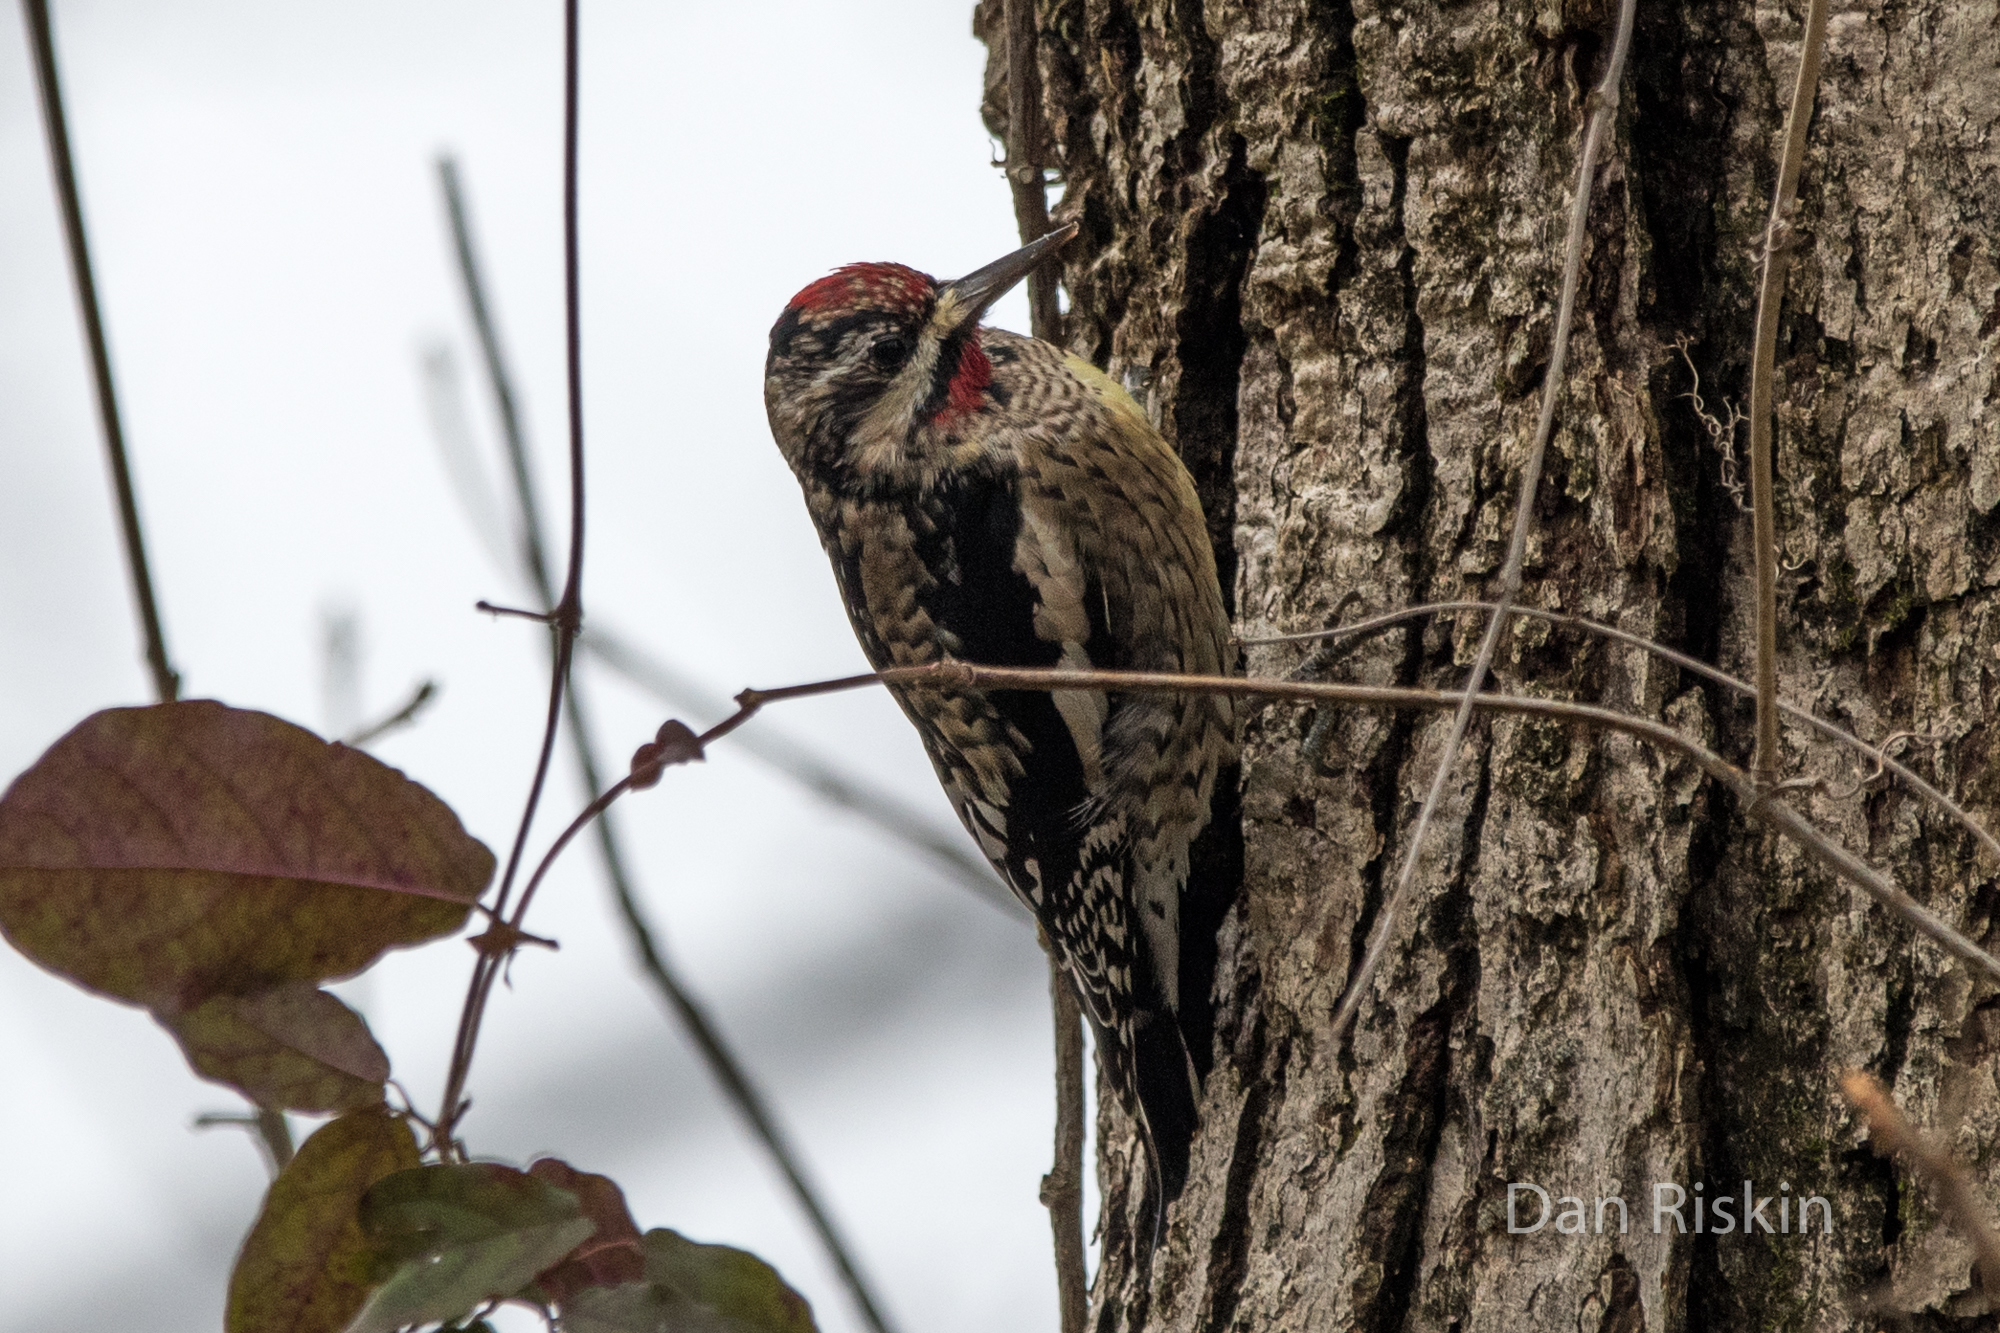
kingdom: Animalia
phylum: Chordata
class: Aves
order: Piciformes
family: Picidae
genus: Sphyrapicus
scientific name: Sphyrapicus varius
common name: Yellow-bellied sapsucker
